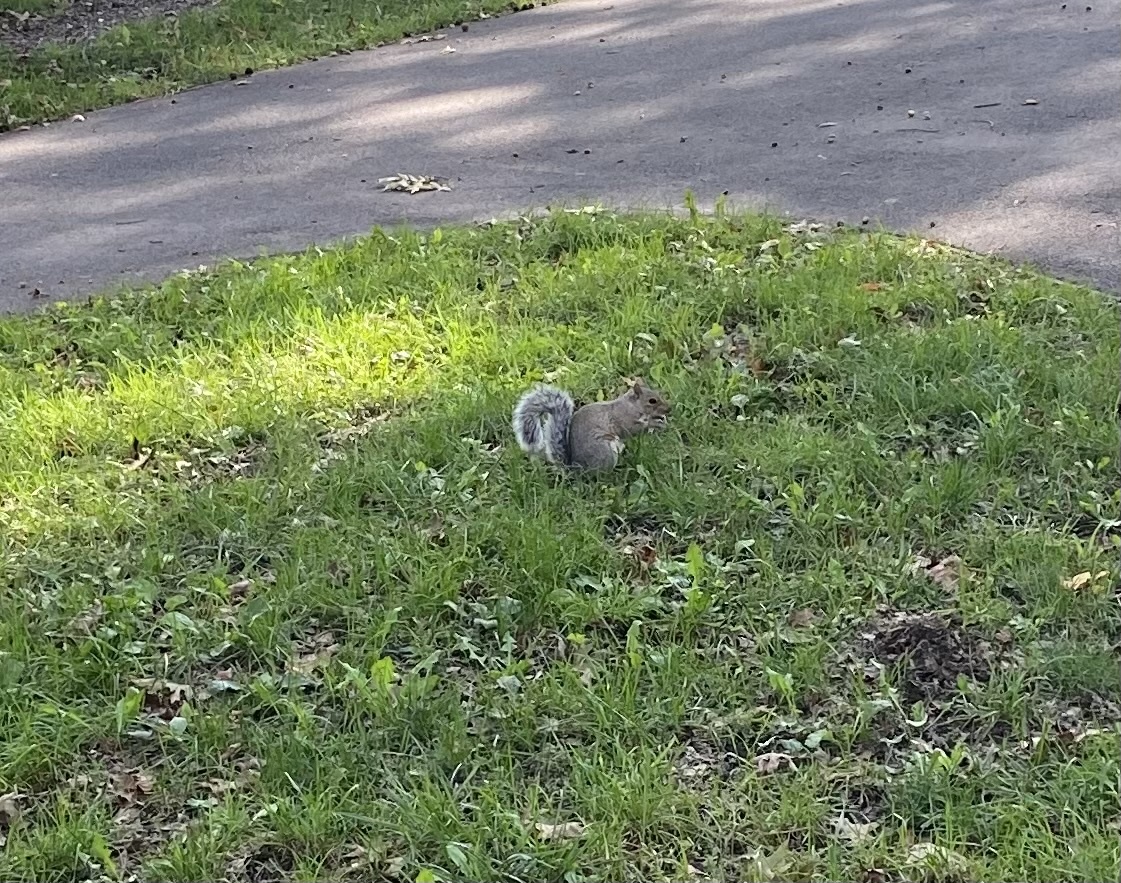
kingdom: Animalia
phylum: Chordata
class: Mammalia
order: Rodentia
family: Sciuridae
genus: Sciurus
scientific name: Sciurus carolinensis
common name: Eastern gray squirrel
